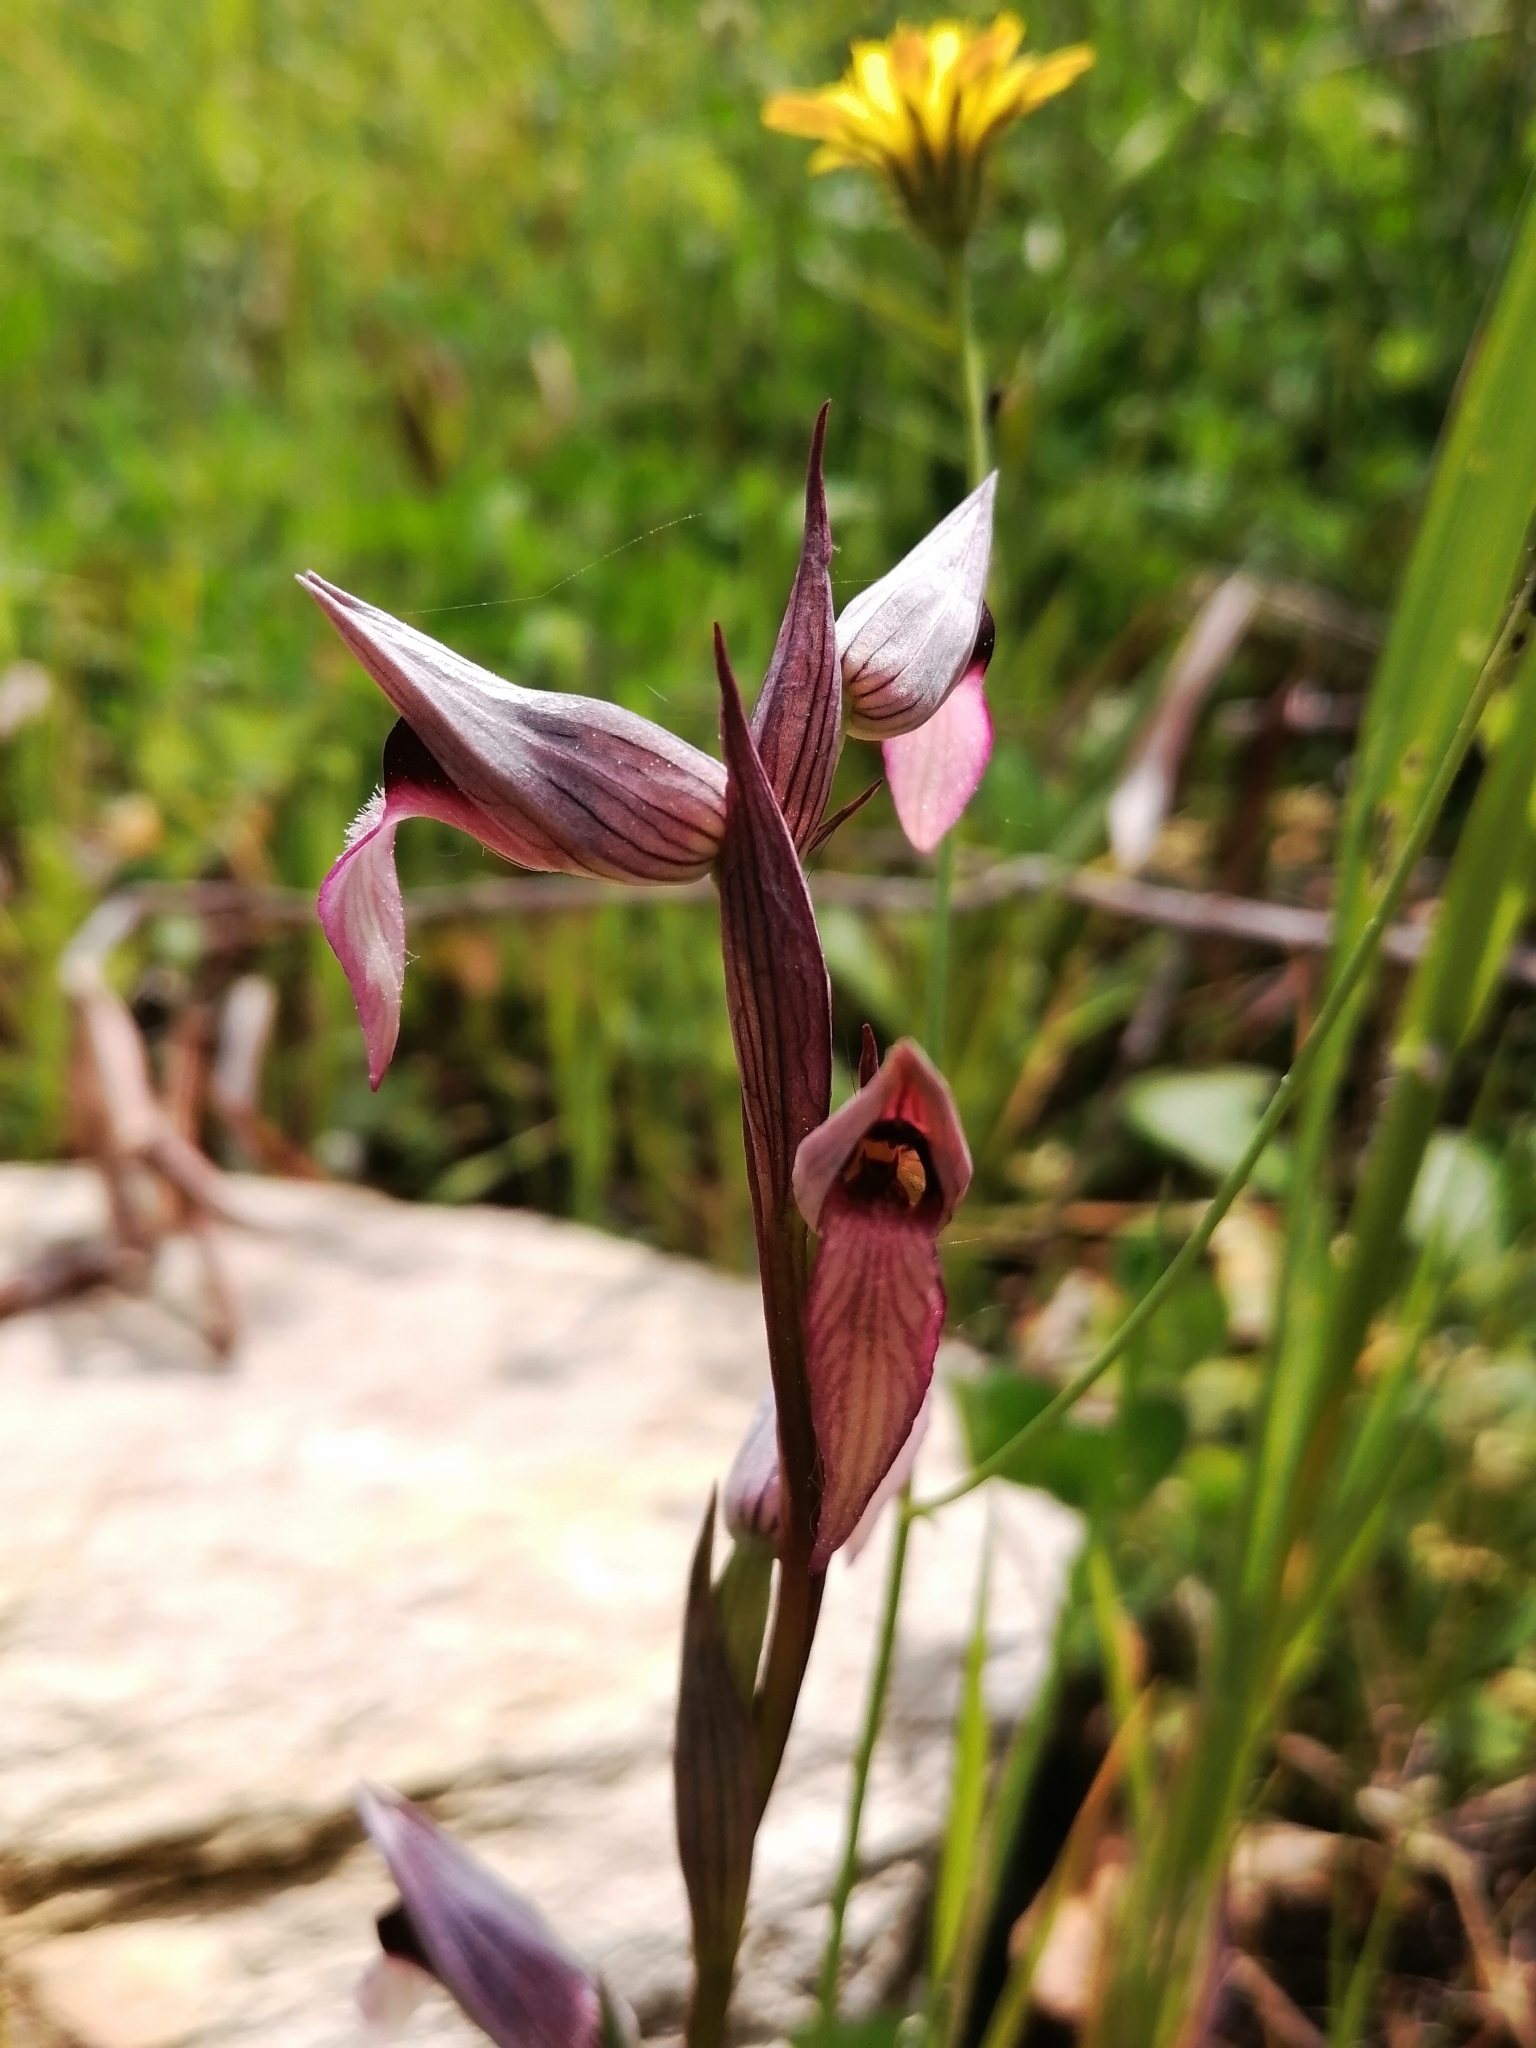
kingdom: Plantae
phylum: Tracheophyta
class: Liliopsida
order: Asparagales
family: Orchidaceae
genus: Serapias
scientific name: Serapias lingua
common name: Tongue-orchid
